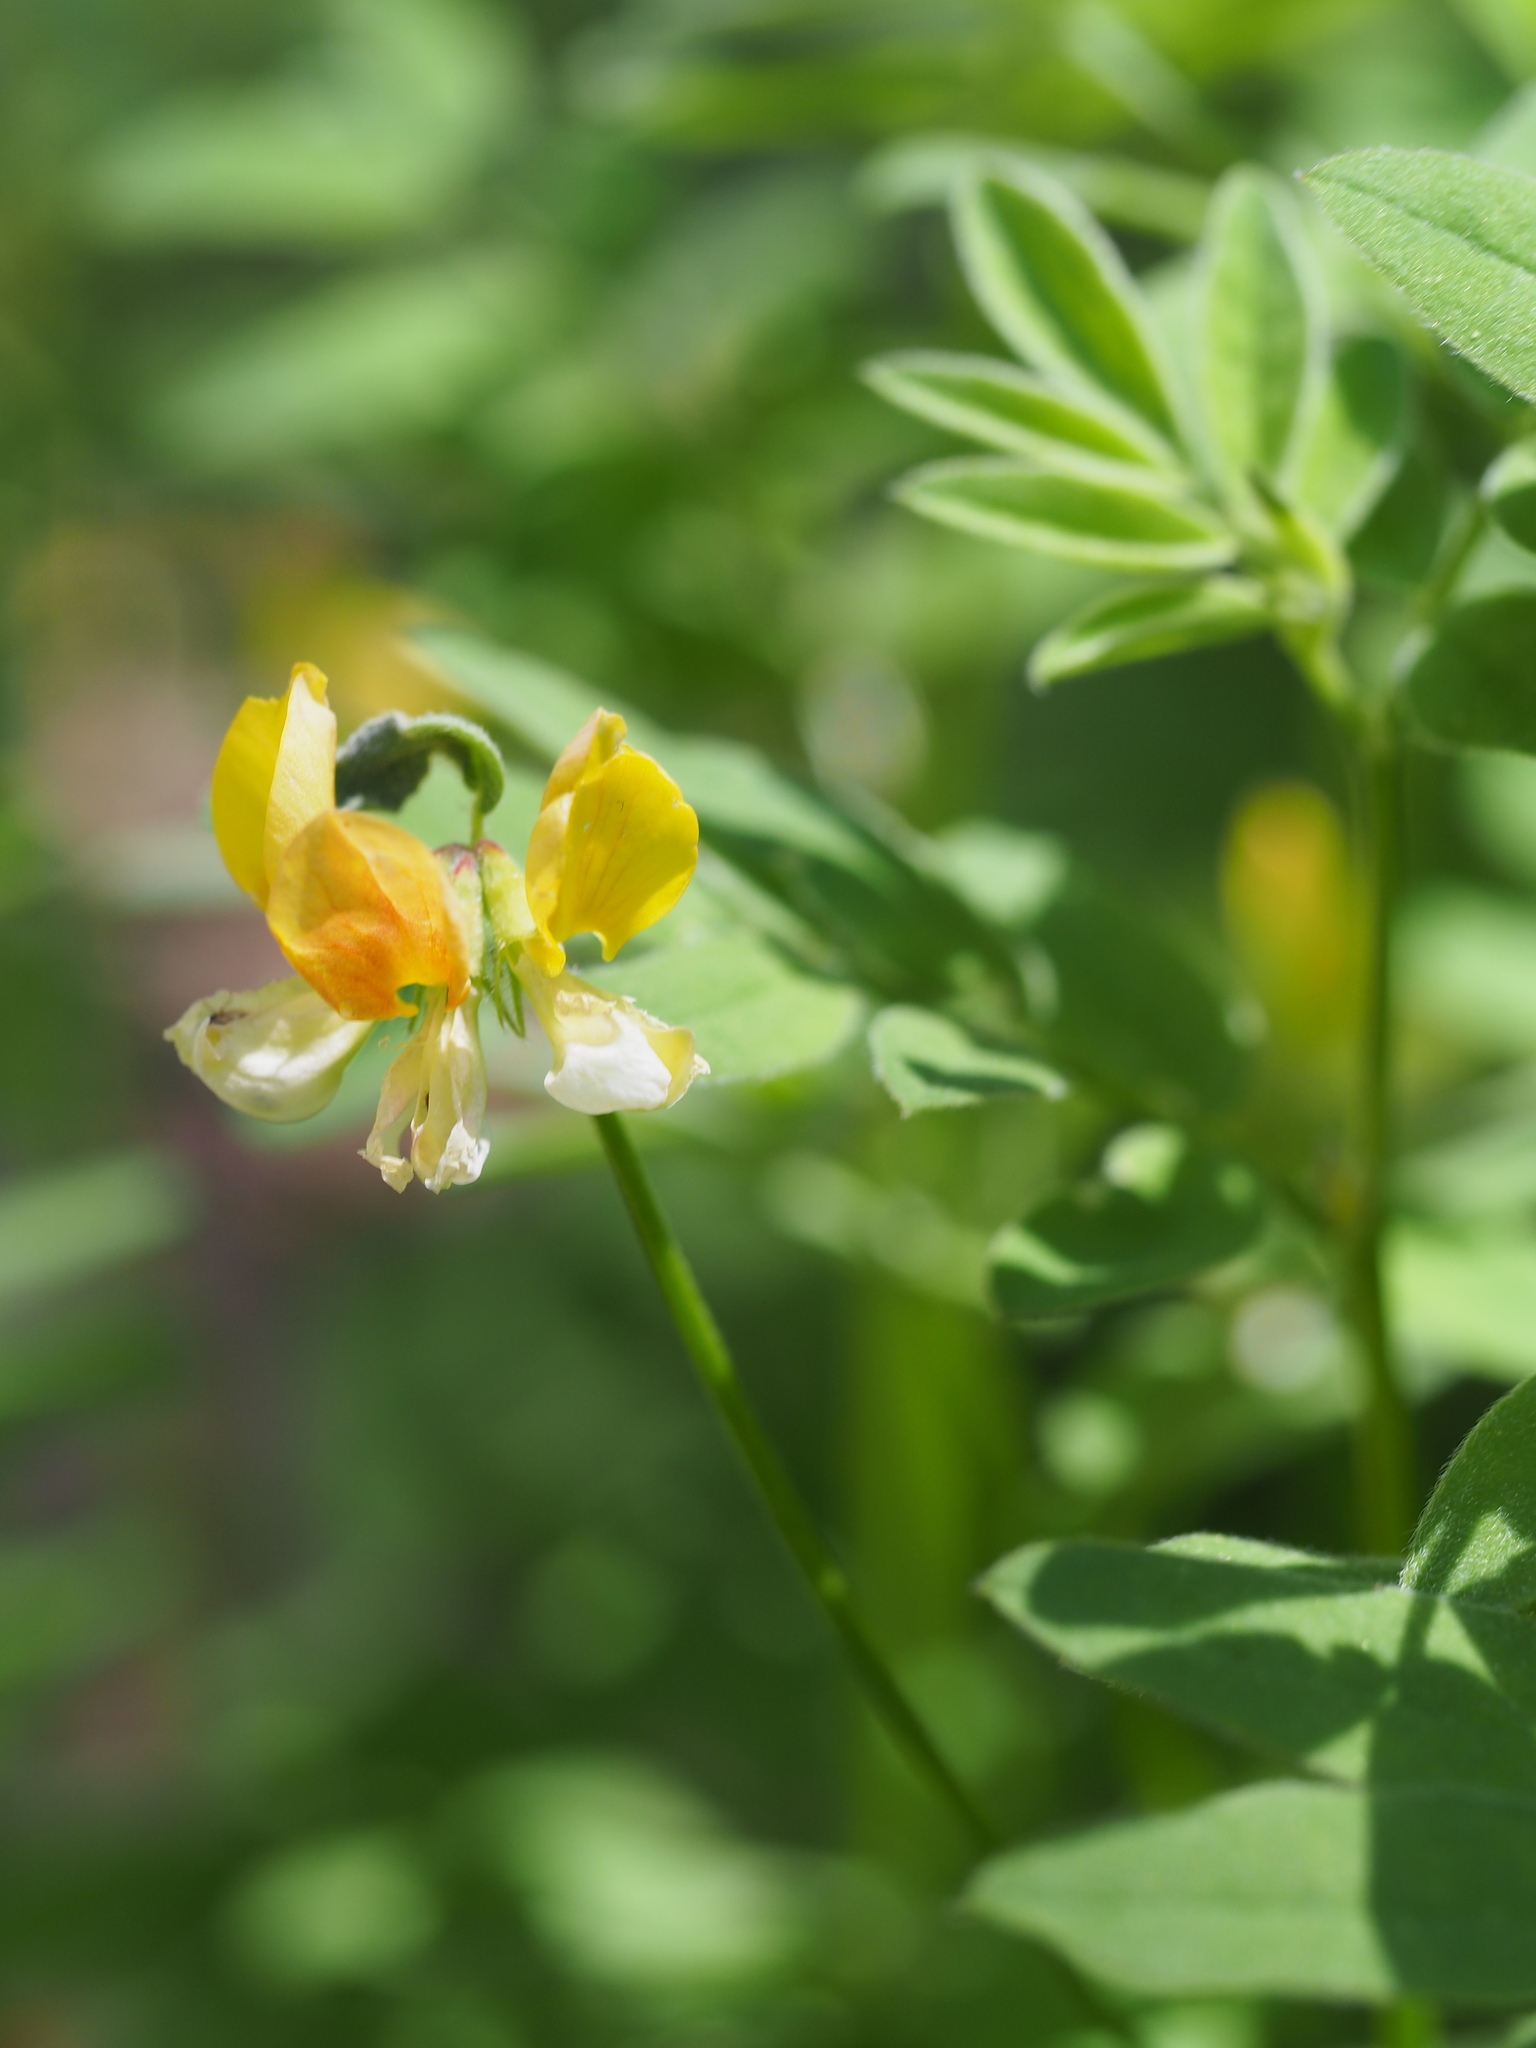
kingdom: Plantae
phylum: Tracheophyta
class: Magnoliopsida
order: Fabales
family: Fabaceae
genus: Hosackia
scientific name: Hosackia oblongifolia
